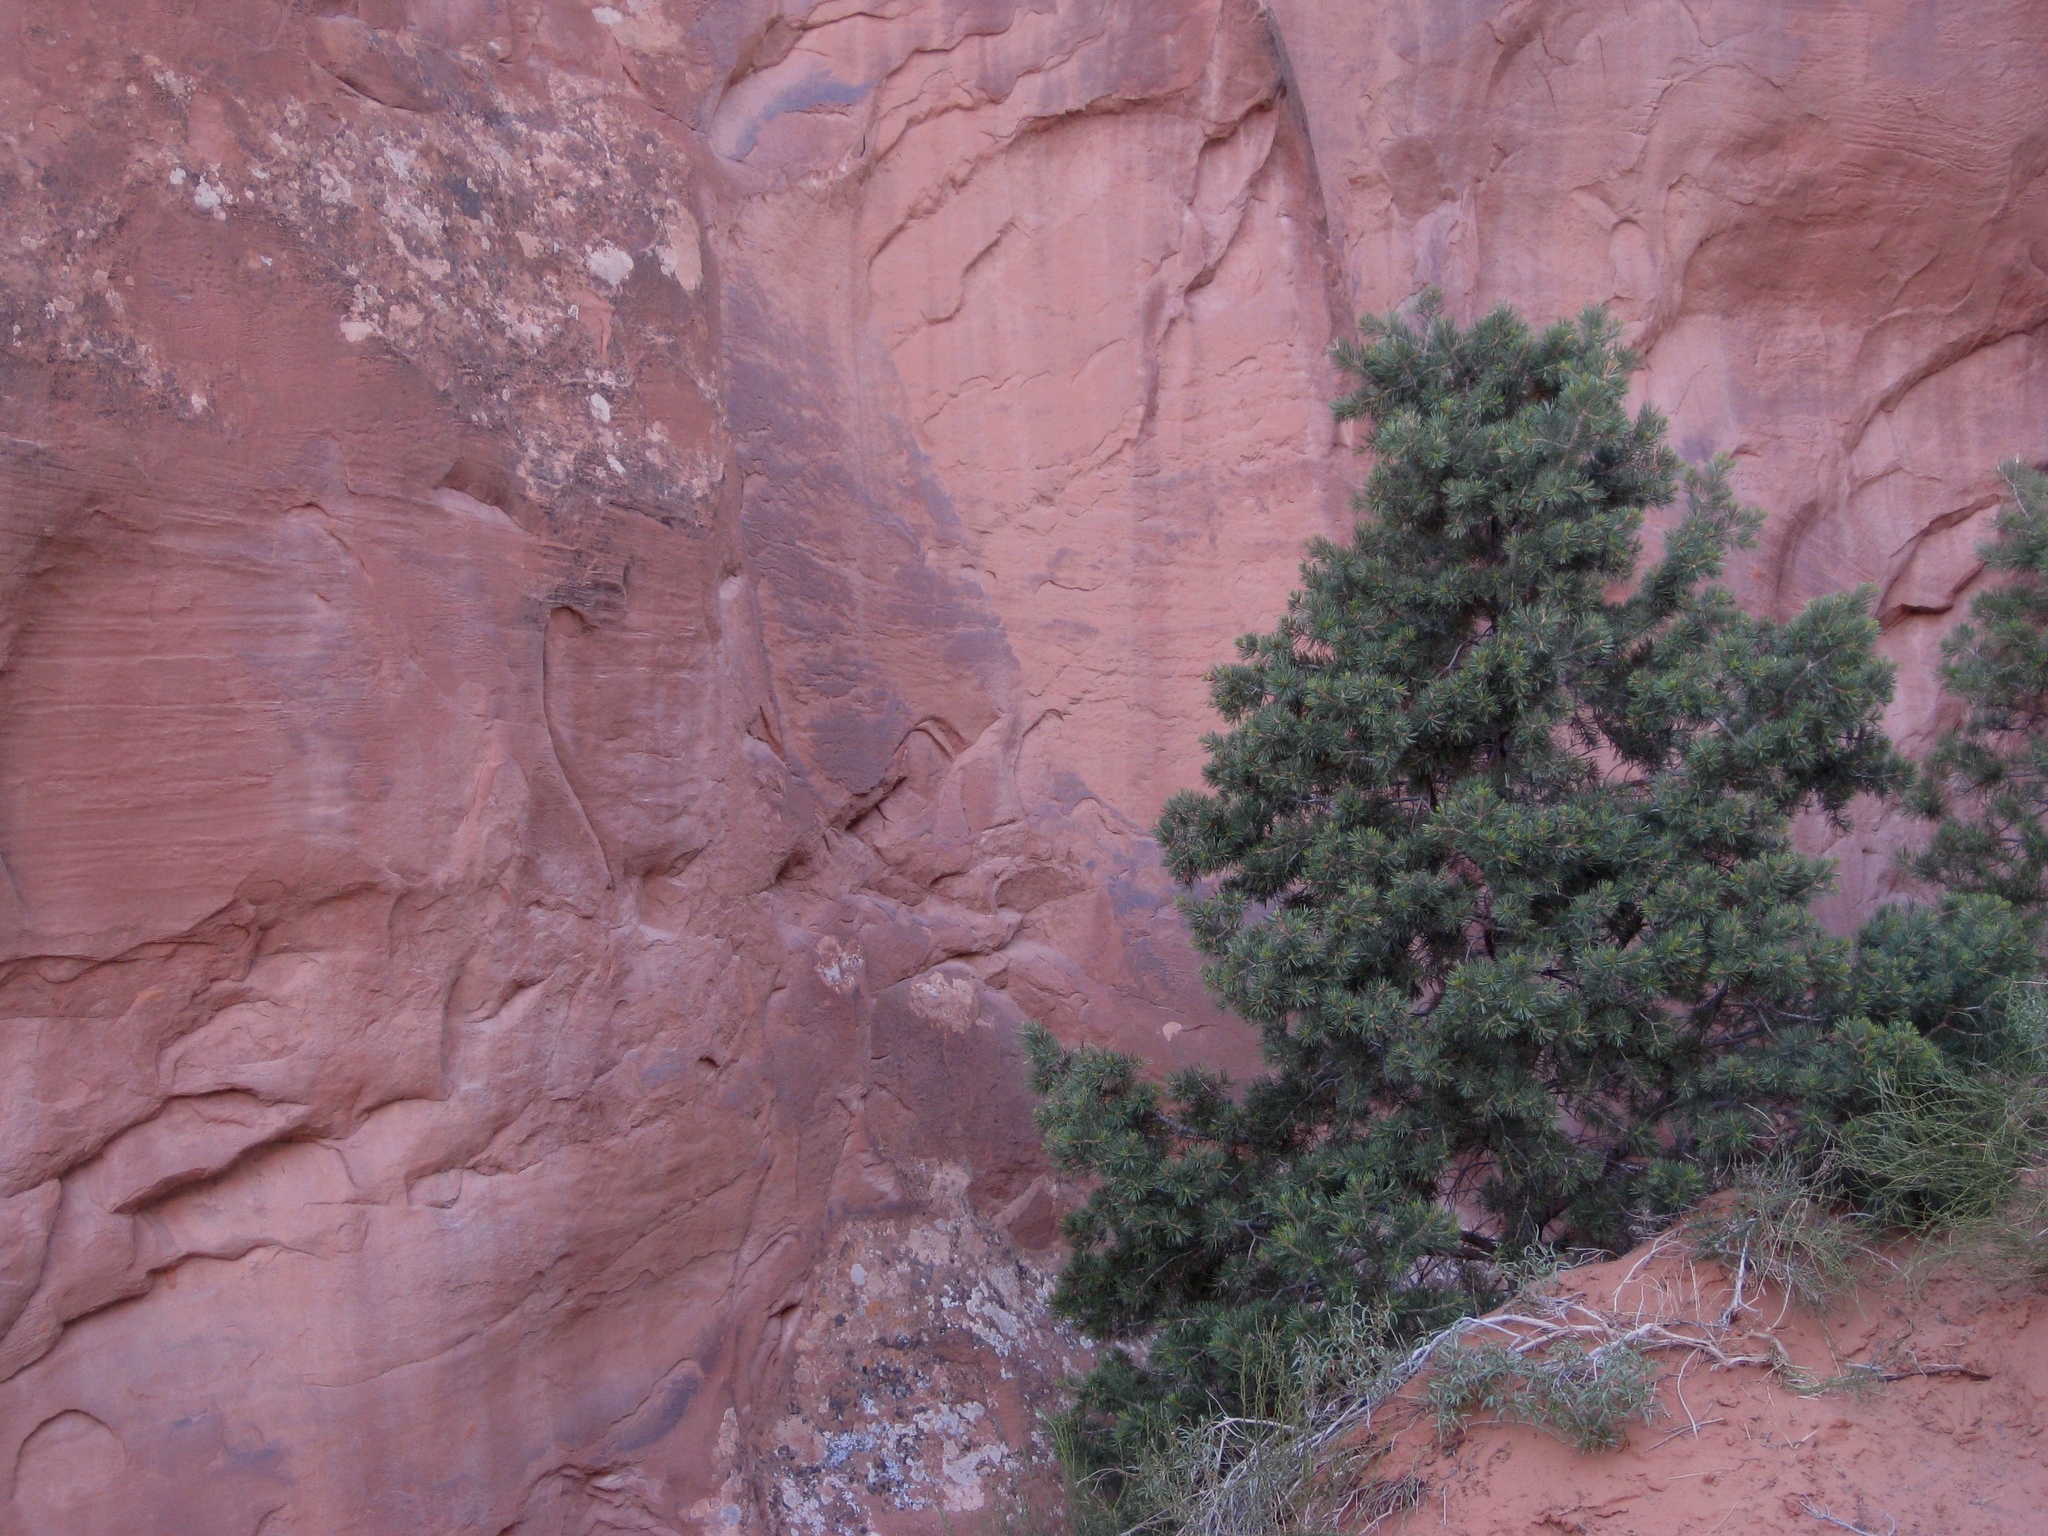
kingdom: Plantae
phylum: Tracheophyta
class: Pinopsida
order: Pinales
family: Pinaceae
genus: Pinus
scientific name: Pinus edulis
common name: Colorado pinyon
